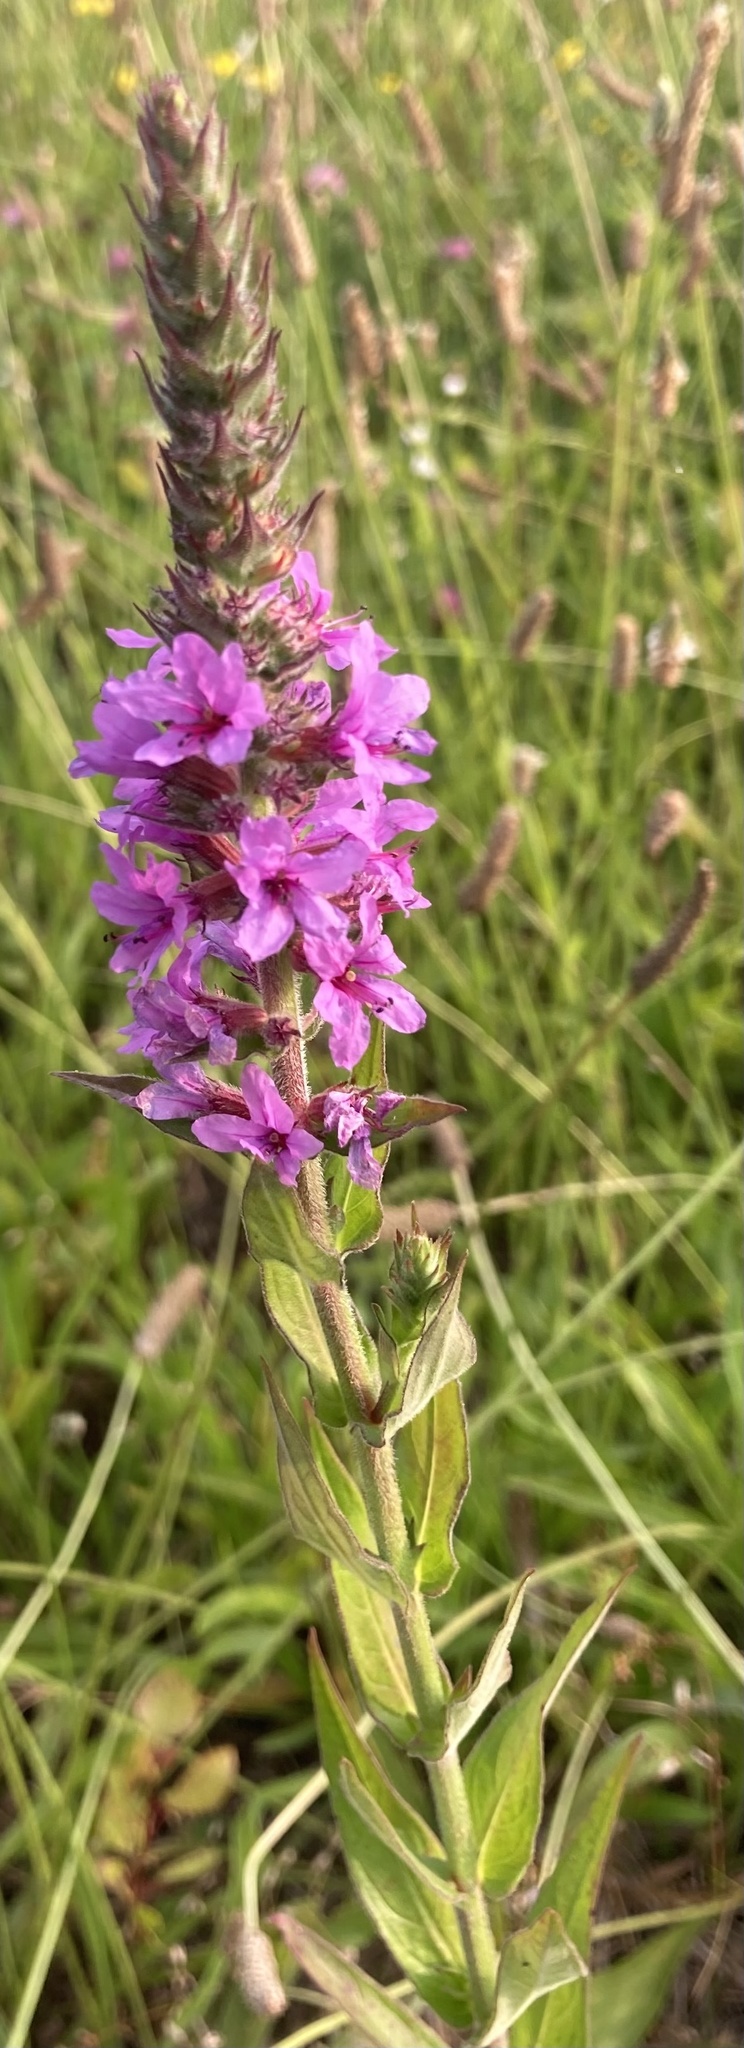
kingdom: Plantae
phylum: Tracheophyta
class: Magnoliopsida
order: Myrtales
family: Lythraceae
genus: Lythrum
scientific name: Lythrum salicaria
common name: Purple loosestrife
